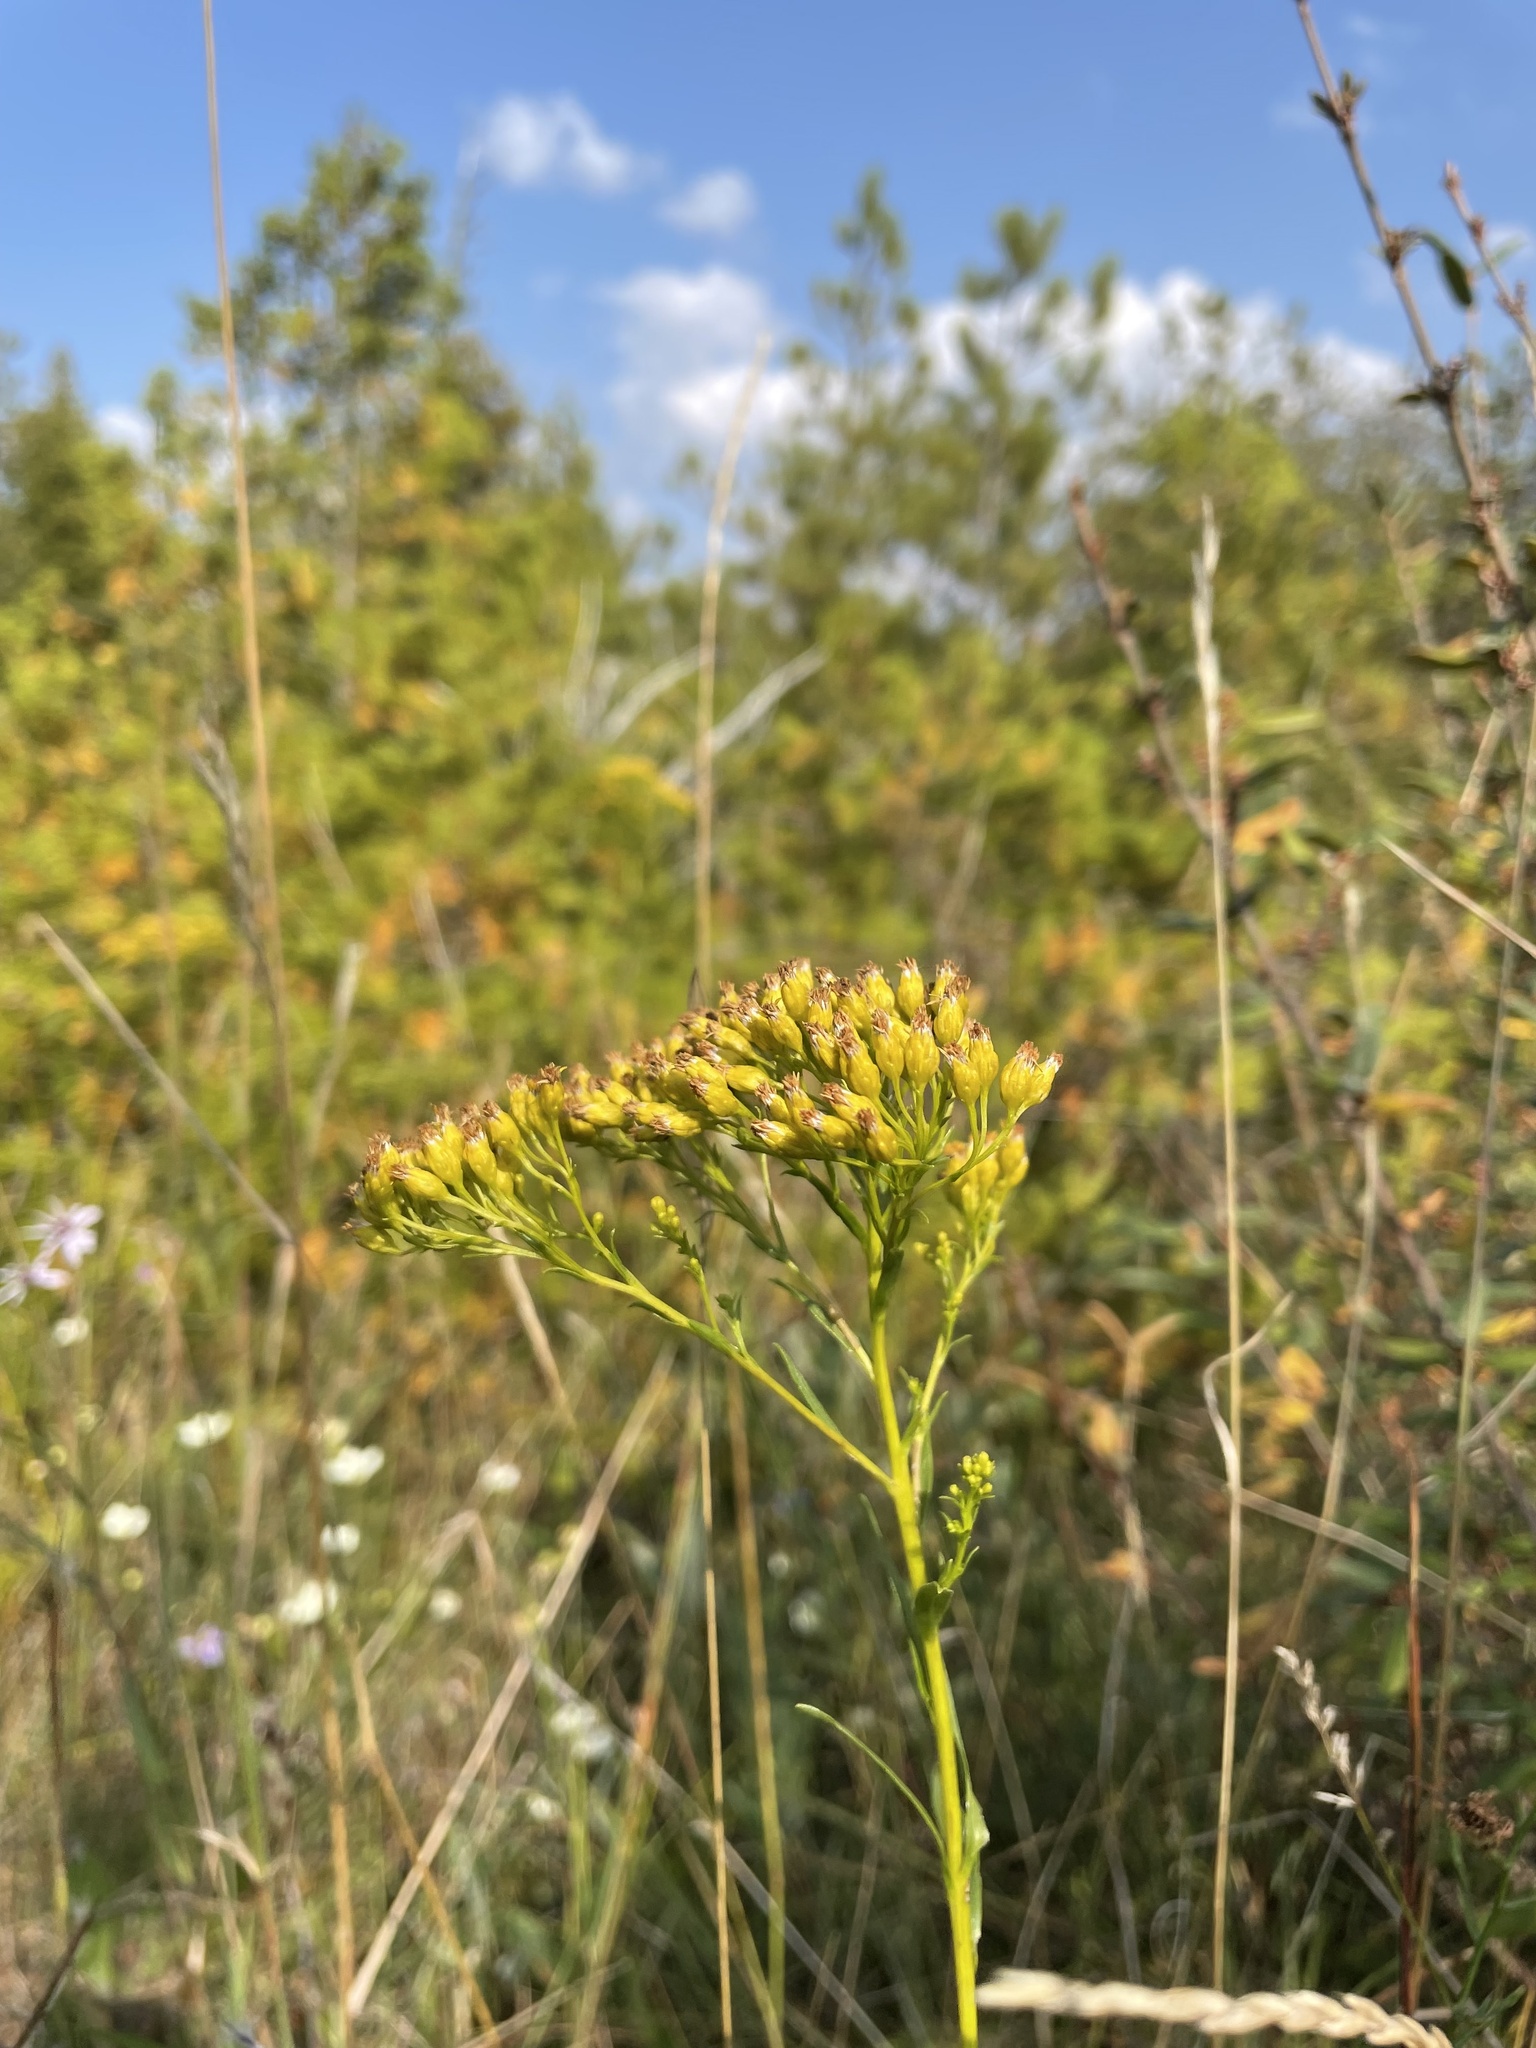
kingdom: Plantae
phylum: Tracheophyta
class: Magnoliopsida
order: Asterales
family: Asteraceae
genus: Solidago
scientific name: Solidago ohioensis
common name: Ohio goldenrod
